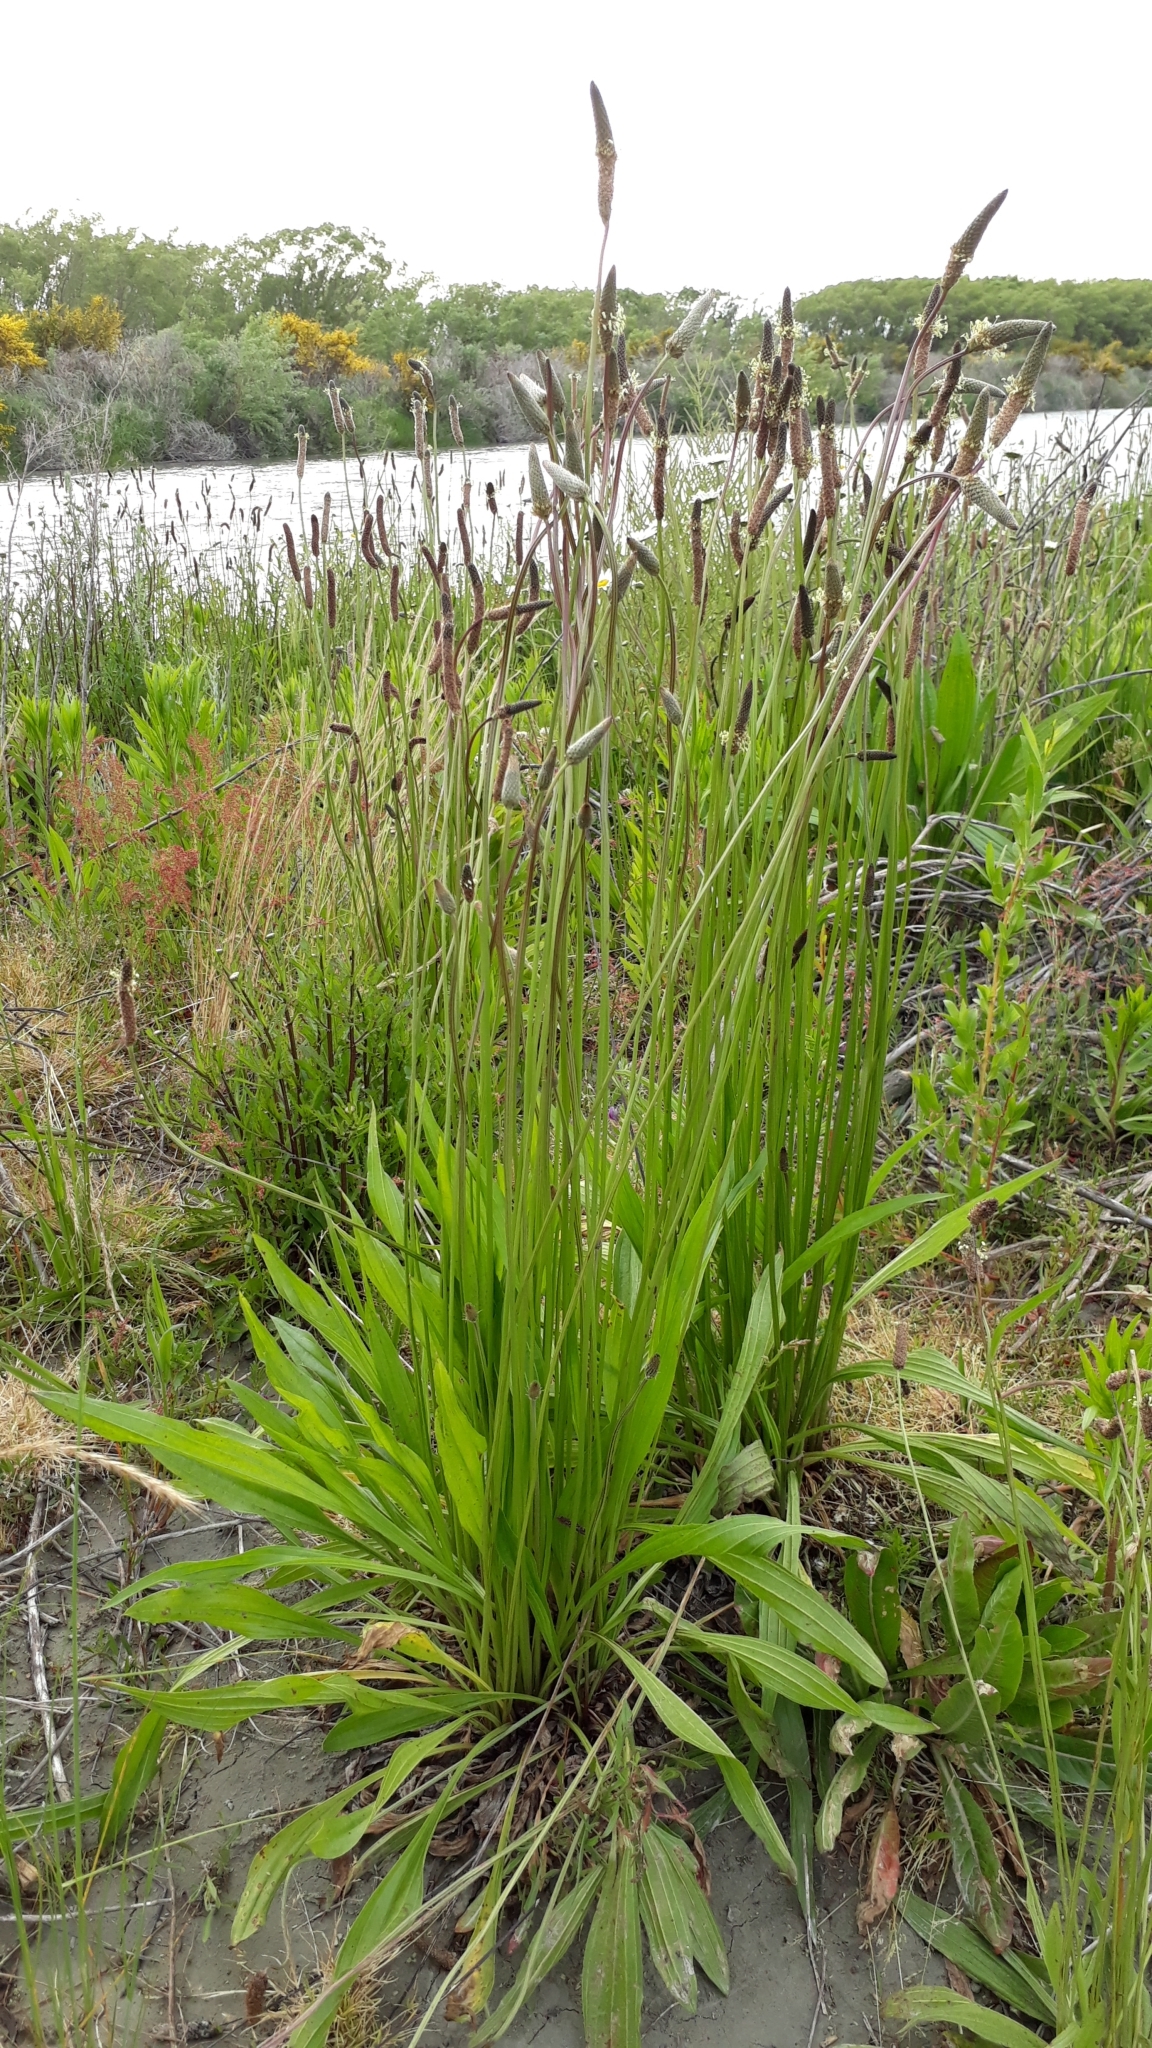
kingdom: Plantae
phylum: Tracheophyta
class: Magnoliopsida
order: Lamiales
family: Plantaginaceae
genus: Plantago
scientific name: Plantago lanceolata
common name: Ribwort plantain
